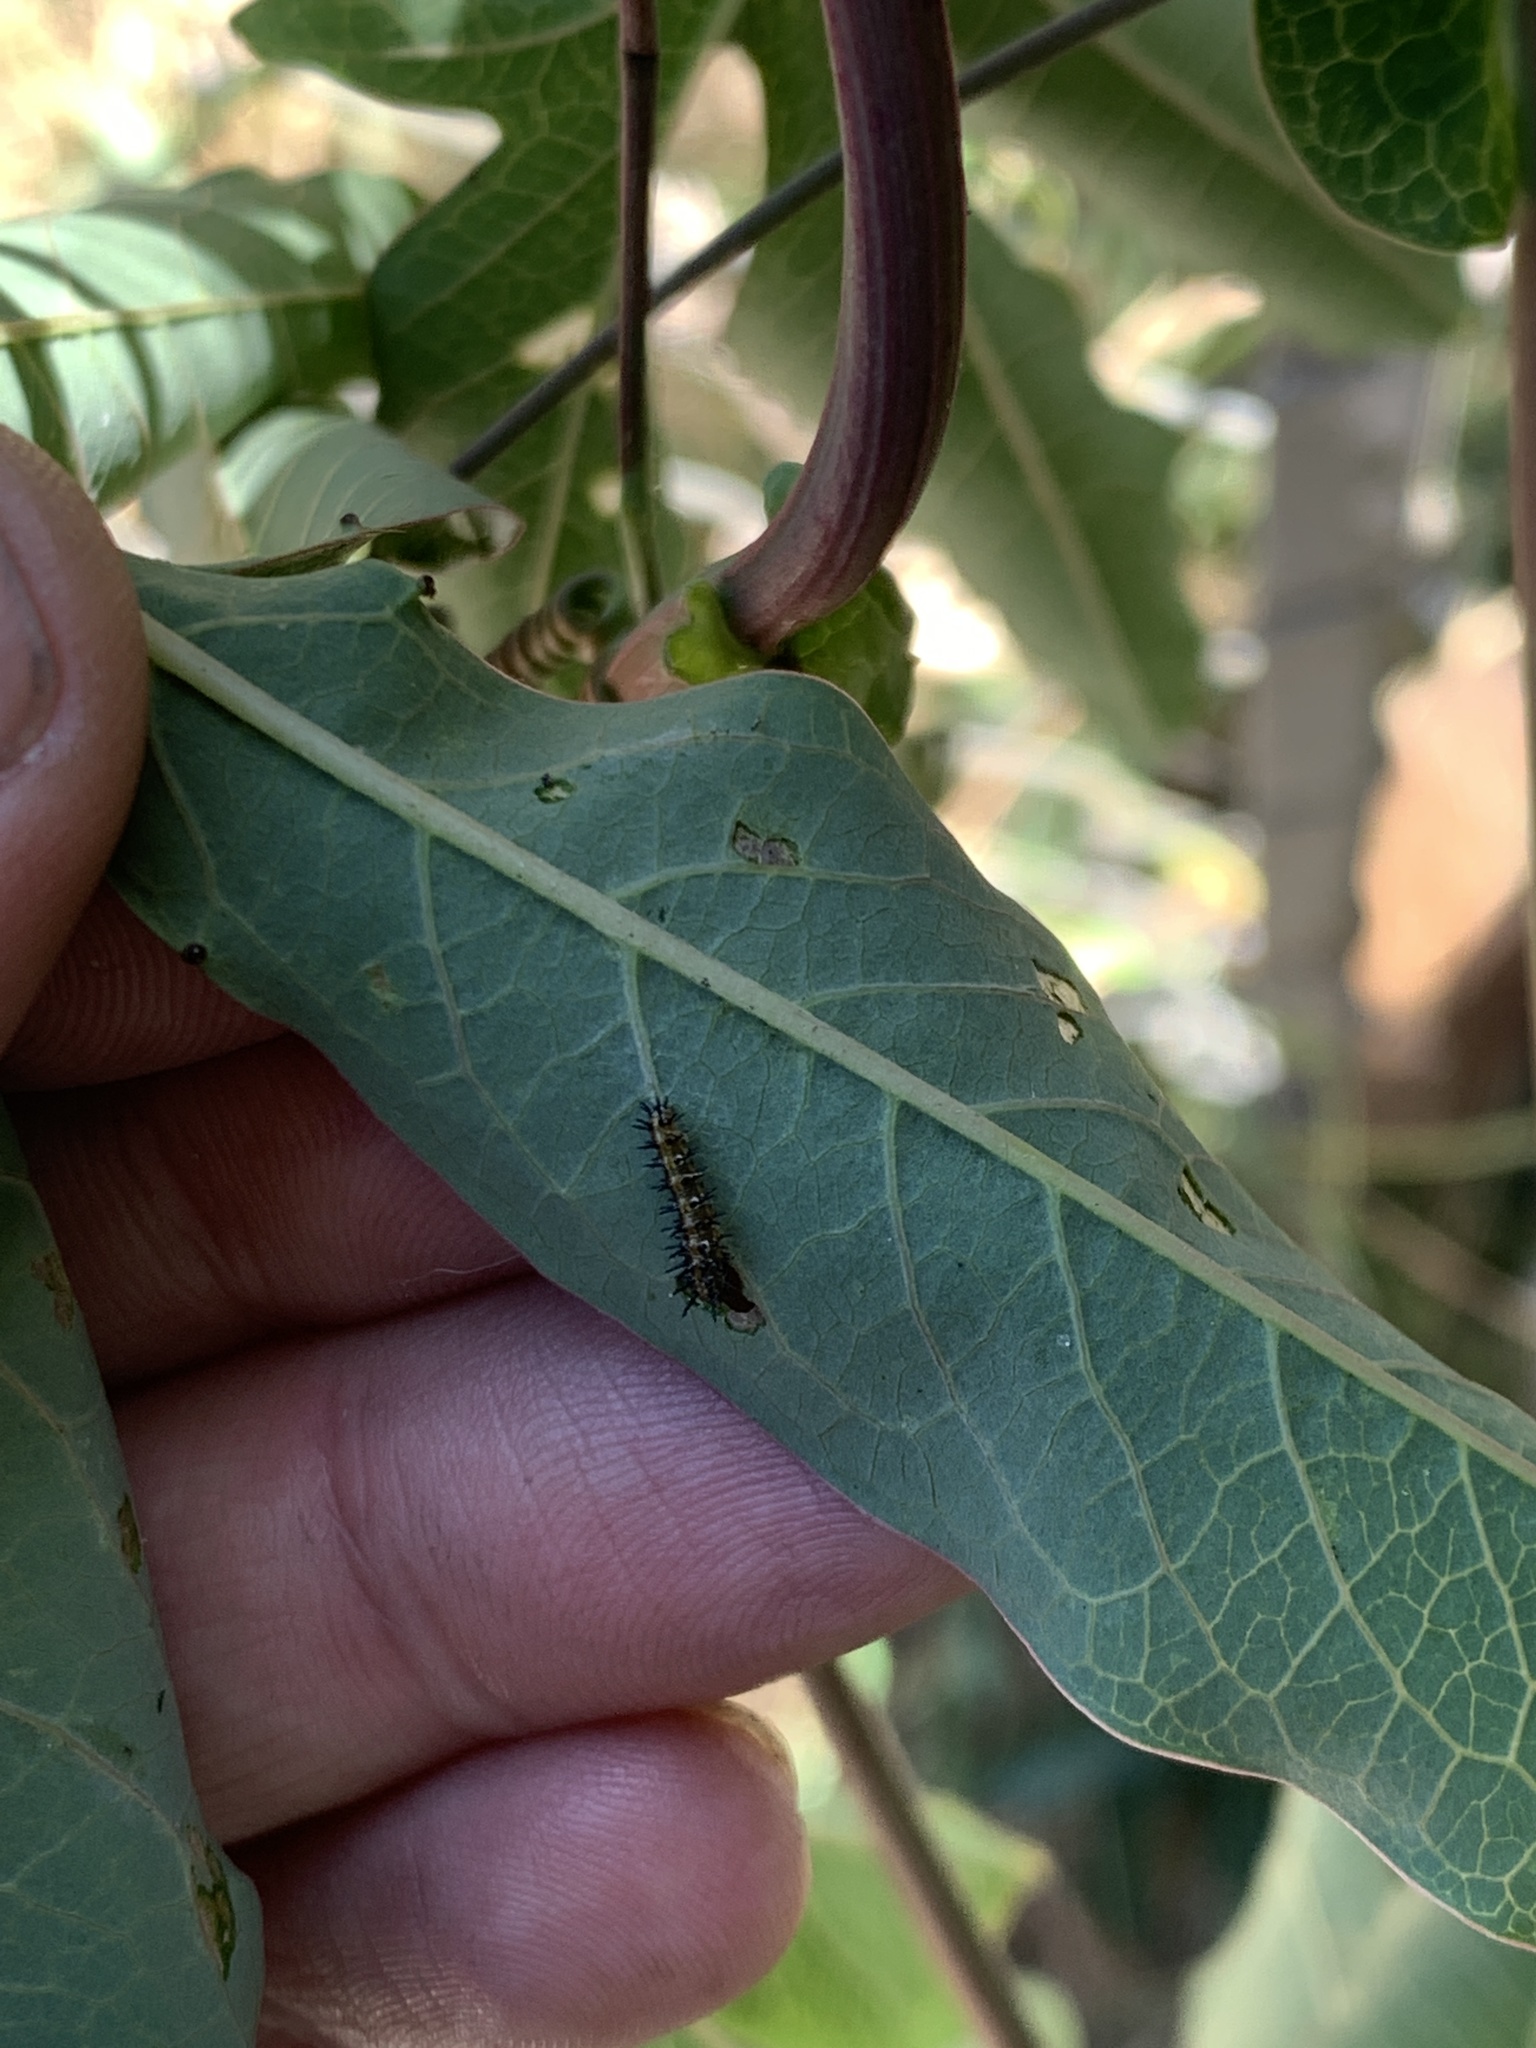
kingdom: Animalia
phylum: Arthropoda
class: Insecta
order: Lepidoptera
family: Nymphalidae
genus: Dione
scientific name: Dione vanillae
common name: Gulf fritillary
